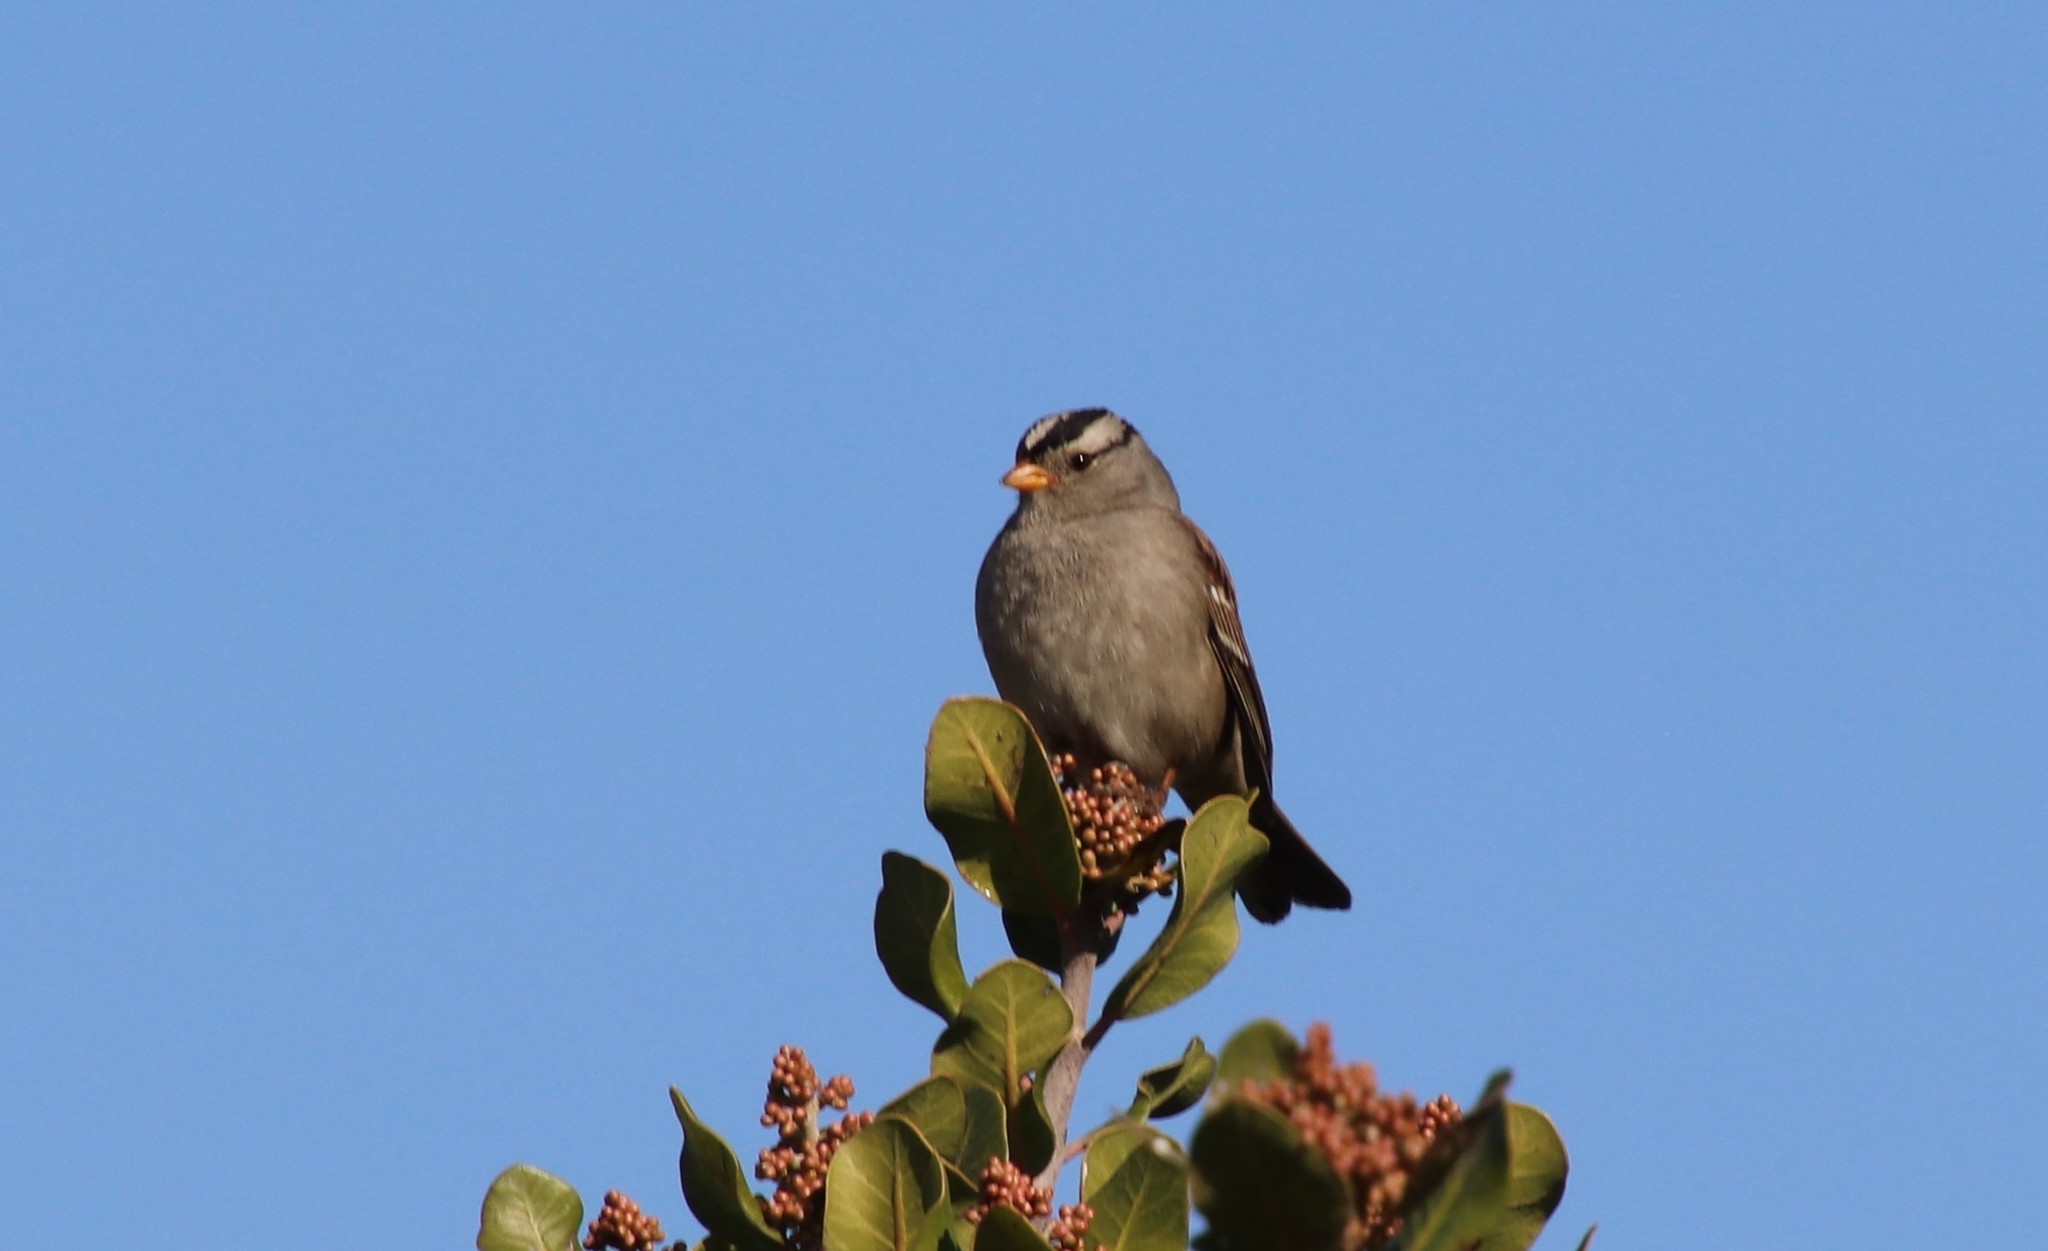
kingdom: Animalia
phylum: Chordata
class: Aves
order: Passeriformes
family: Passerellidae
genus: Zonotrichia
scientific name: Zonotrichia leucophrys
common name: White-crowned sparrow
